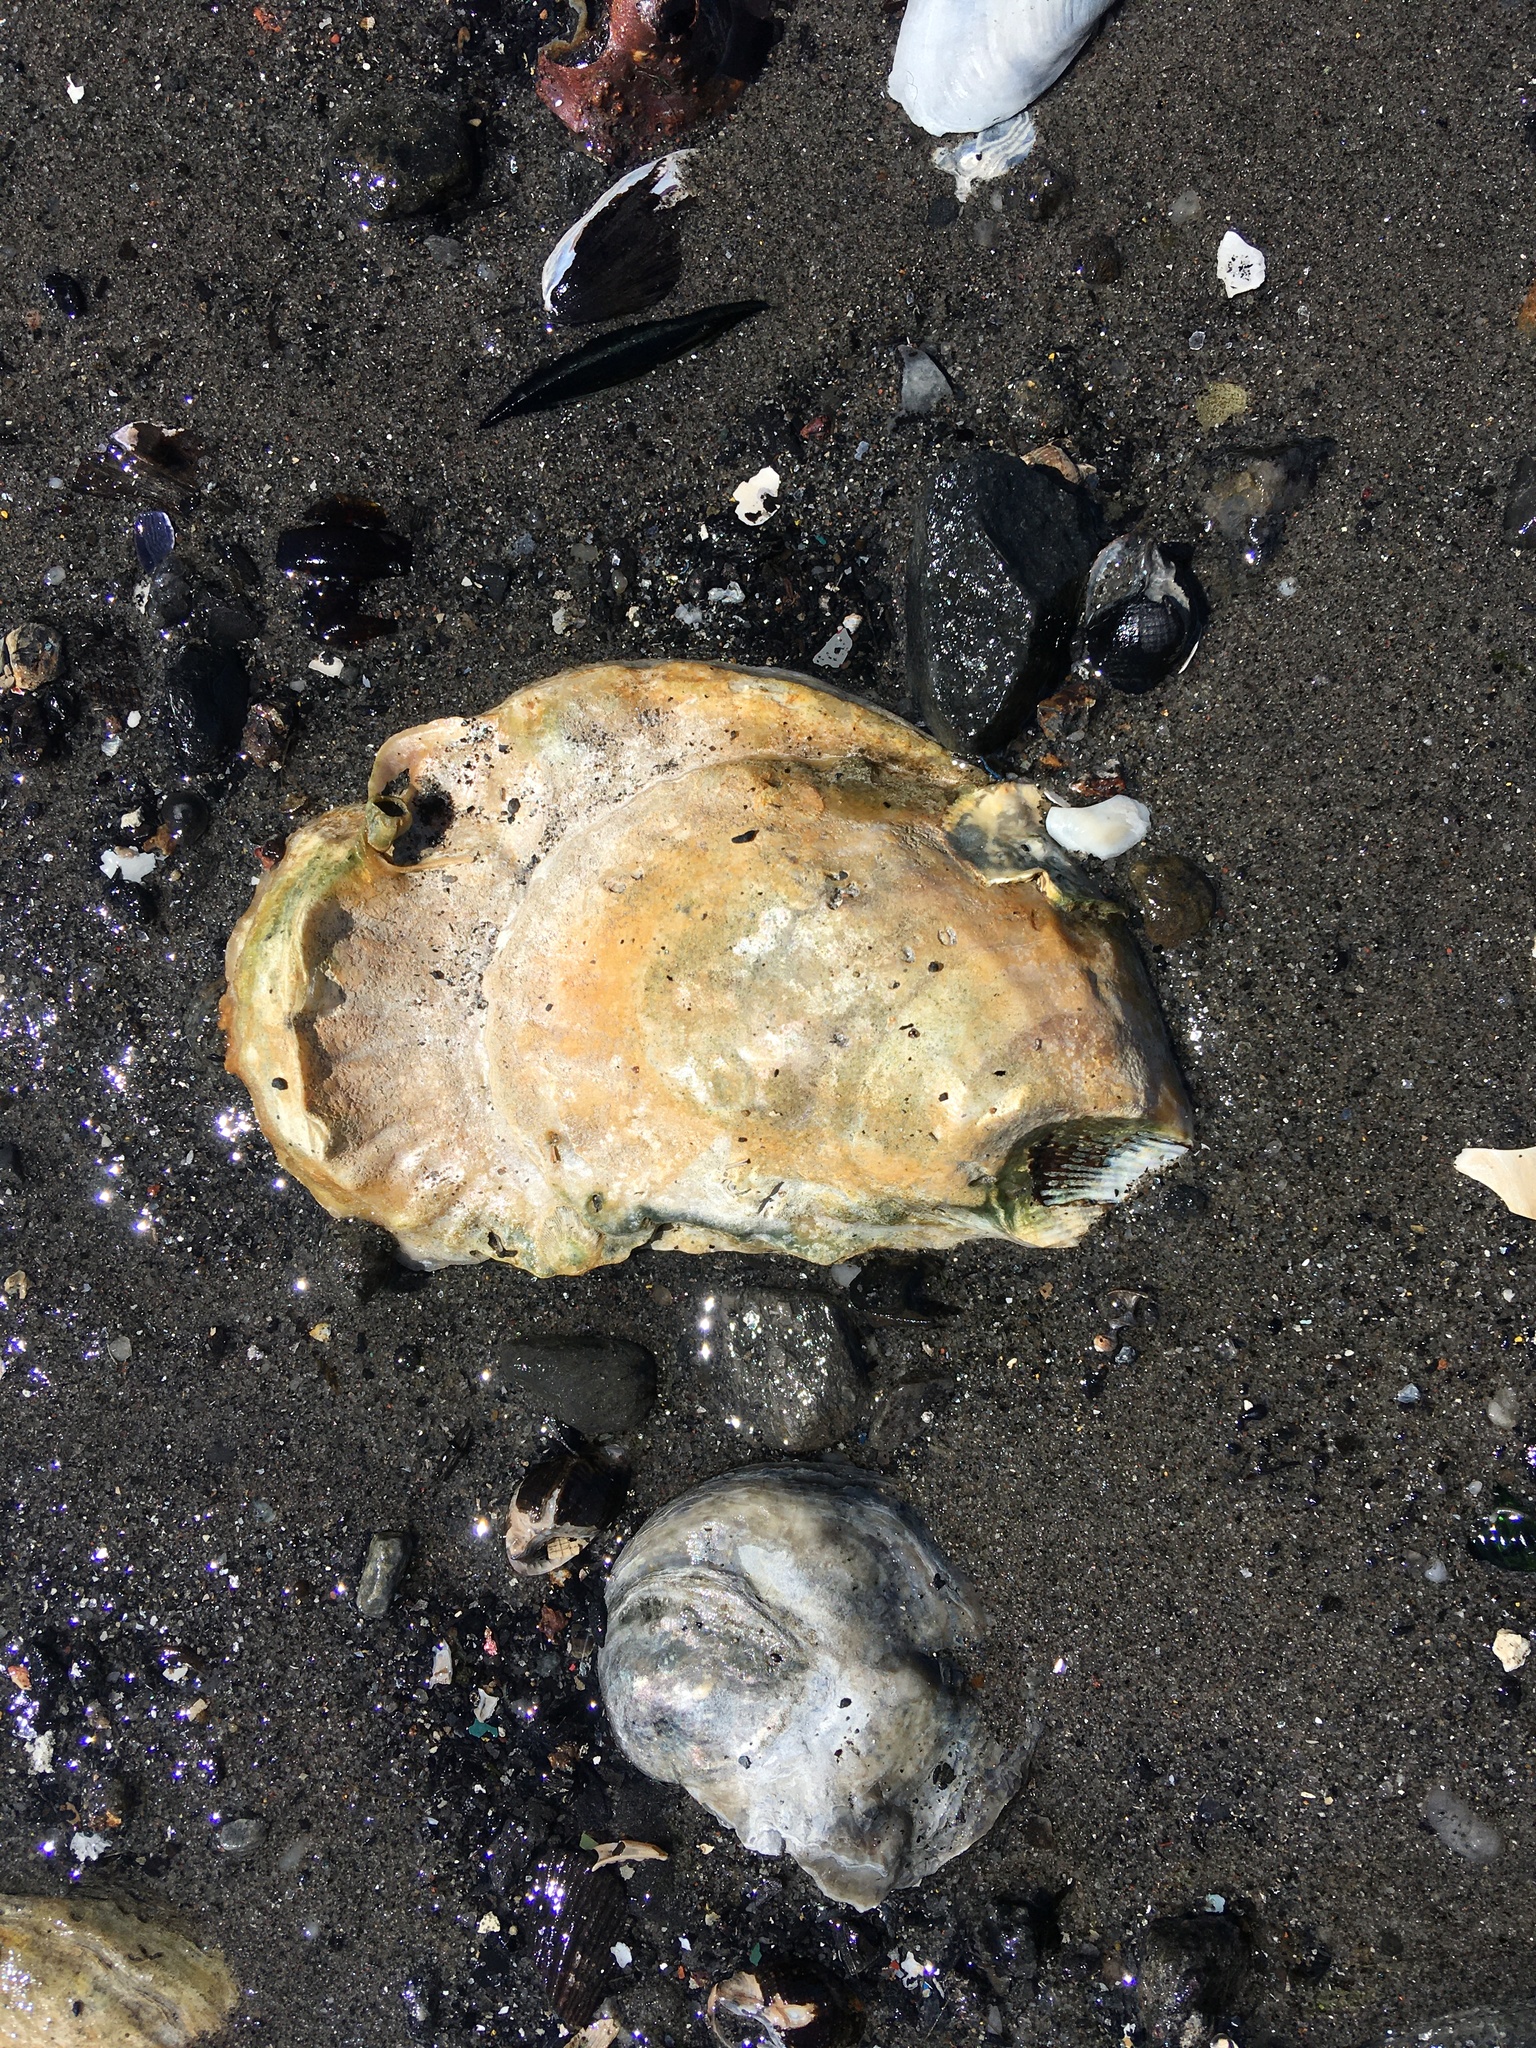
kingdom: Animalia
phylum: Mollusca
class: Bivalvia
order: Ostreida
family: Ostreidae
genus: Crassostrea
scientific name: Crassostrea virginica
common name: American oyster
